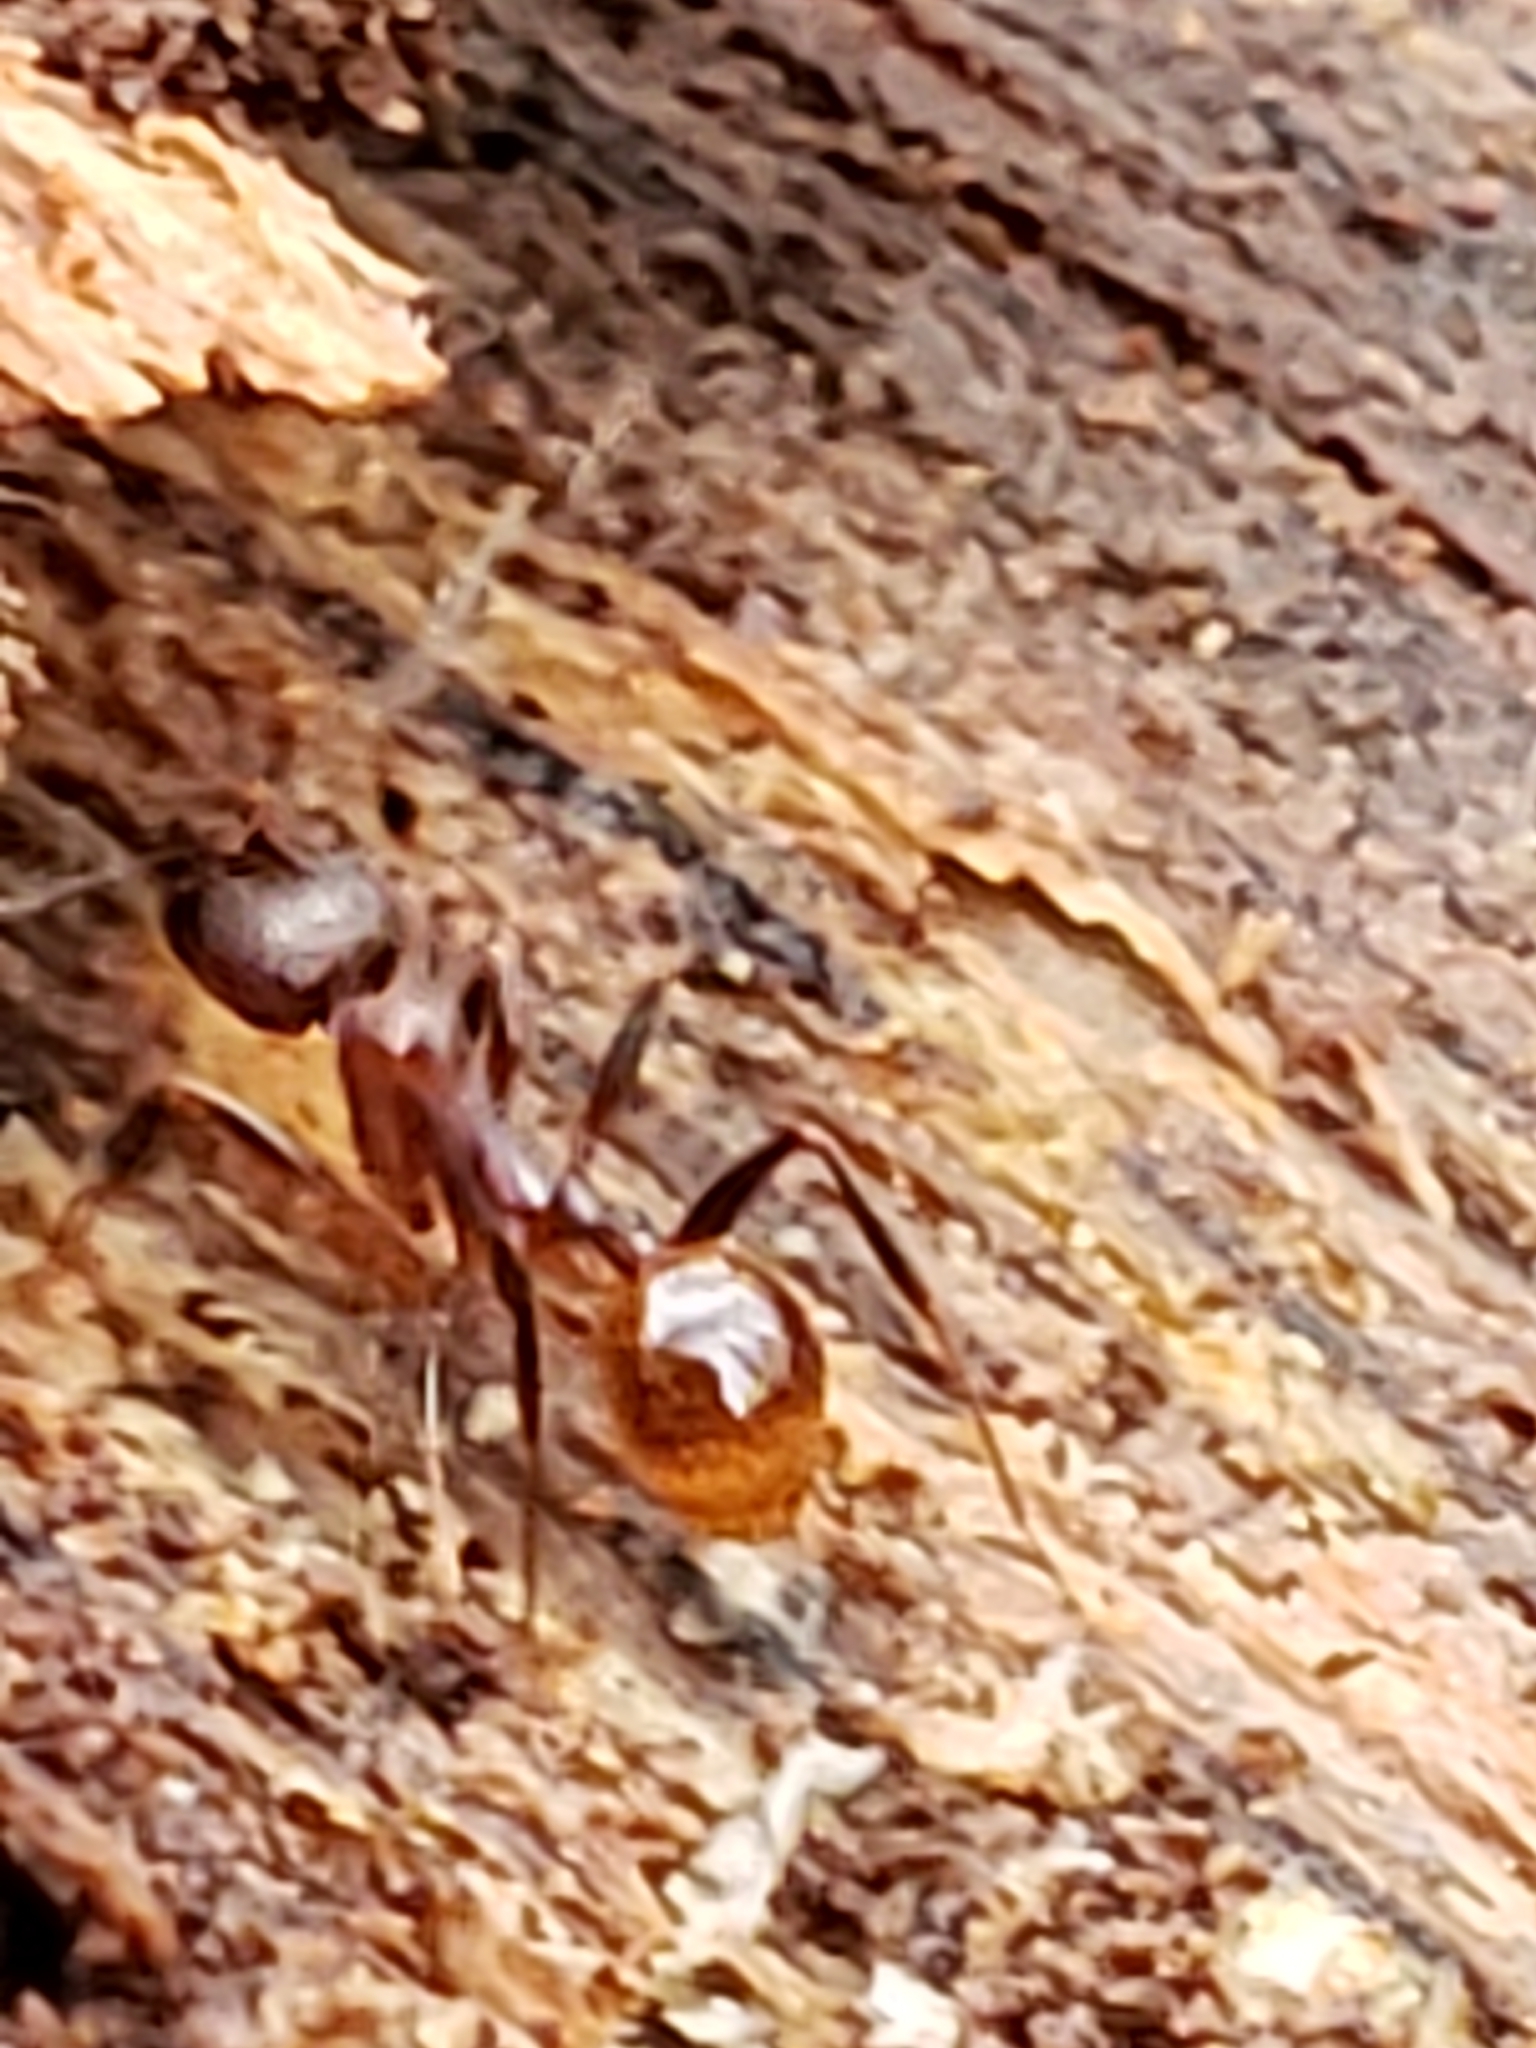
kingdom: Animalia
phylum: Arthropoda
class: Insecta
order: Hymenoptera
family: Formicidae
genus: Aphaenogaster
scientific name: Aphaenogaster fulva
